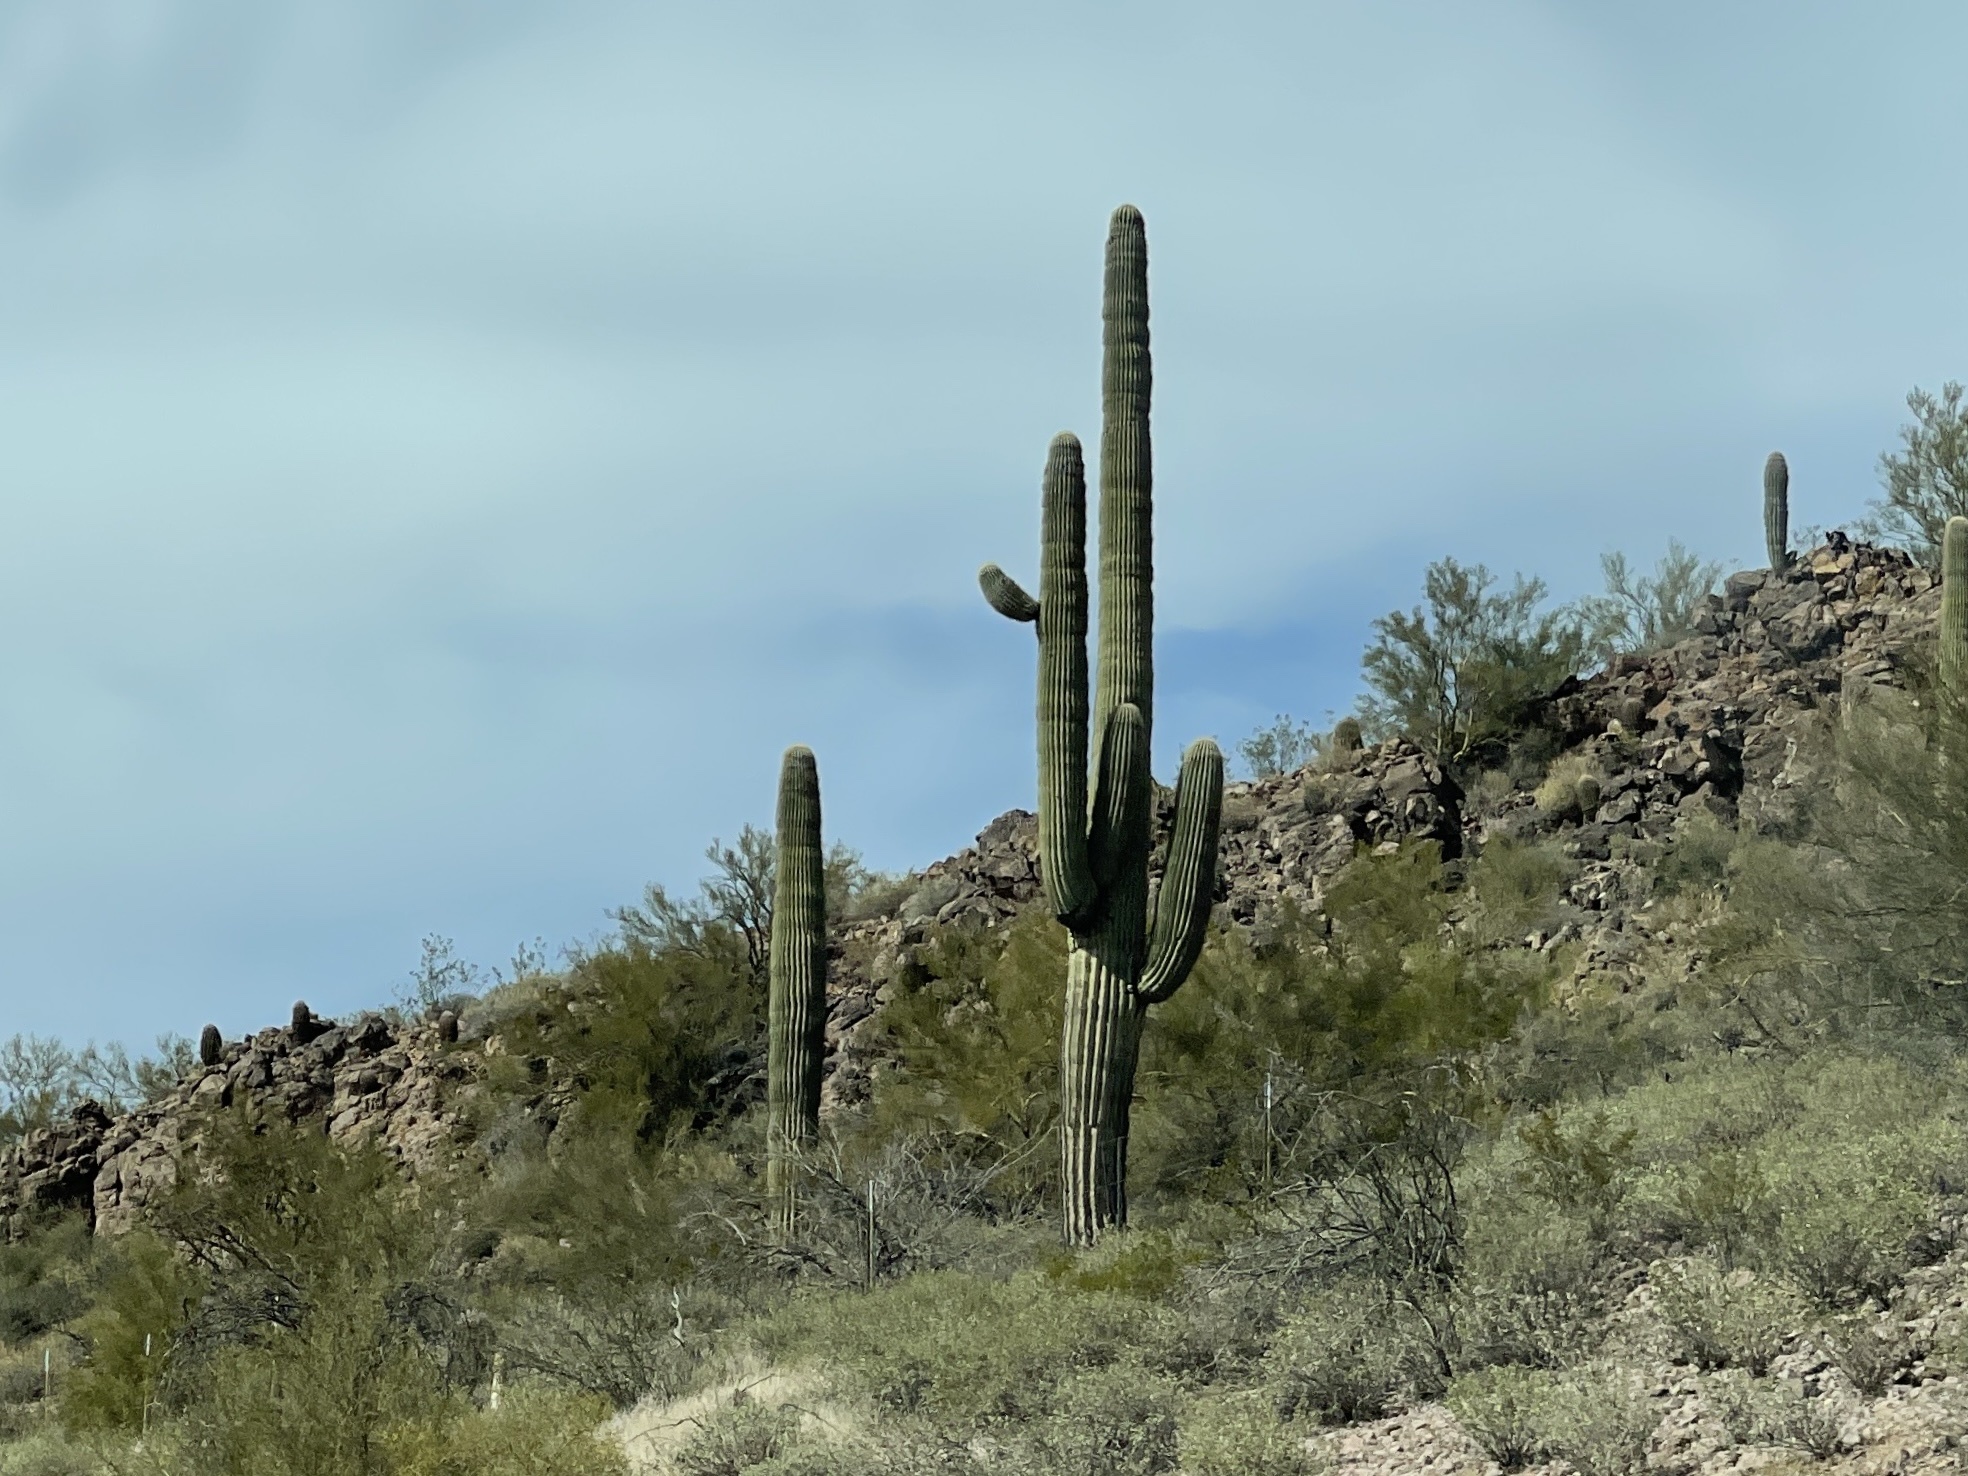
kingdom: Plantae
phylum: Tracheophyta
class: Magnoliopsida
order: Caryophyllales
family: Cactaceae
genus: Carnegiea
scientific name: Carnegiea gigantea
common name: Saguaro
